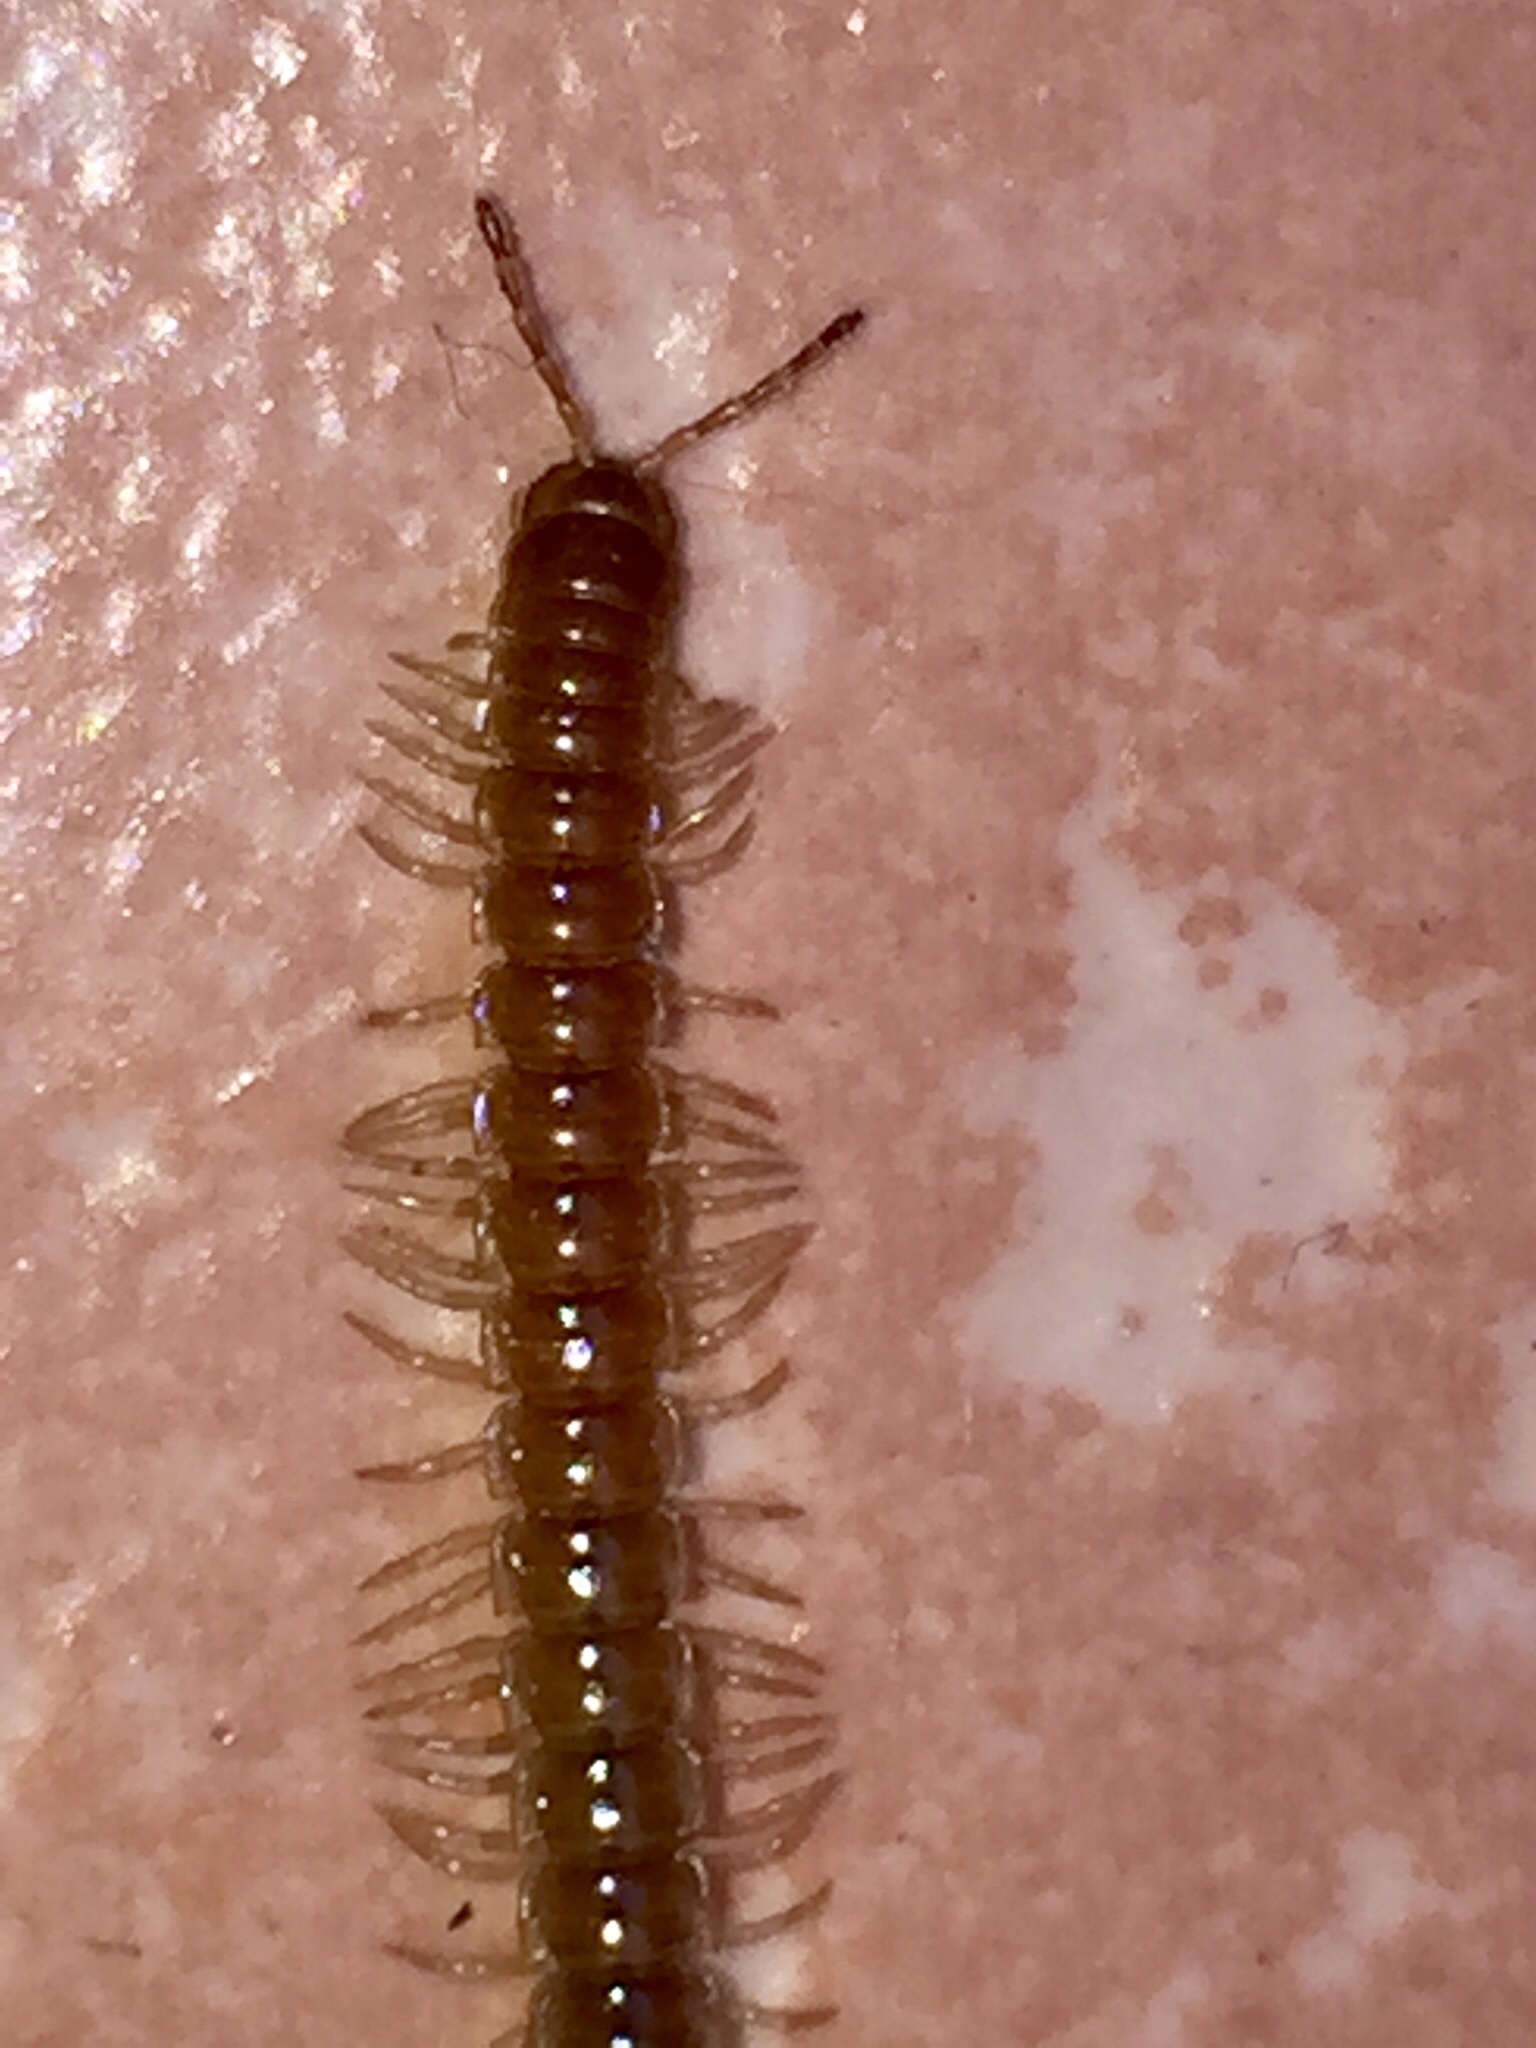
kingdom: Animalia
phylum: Arthropoda
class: Diplopoda
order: Polydesmida
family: Paradoxosomatidae
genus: Oxidus
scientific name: Oxidus gracilis
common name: Greenhouse millipede
